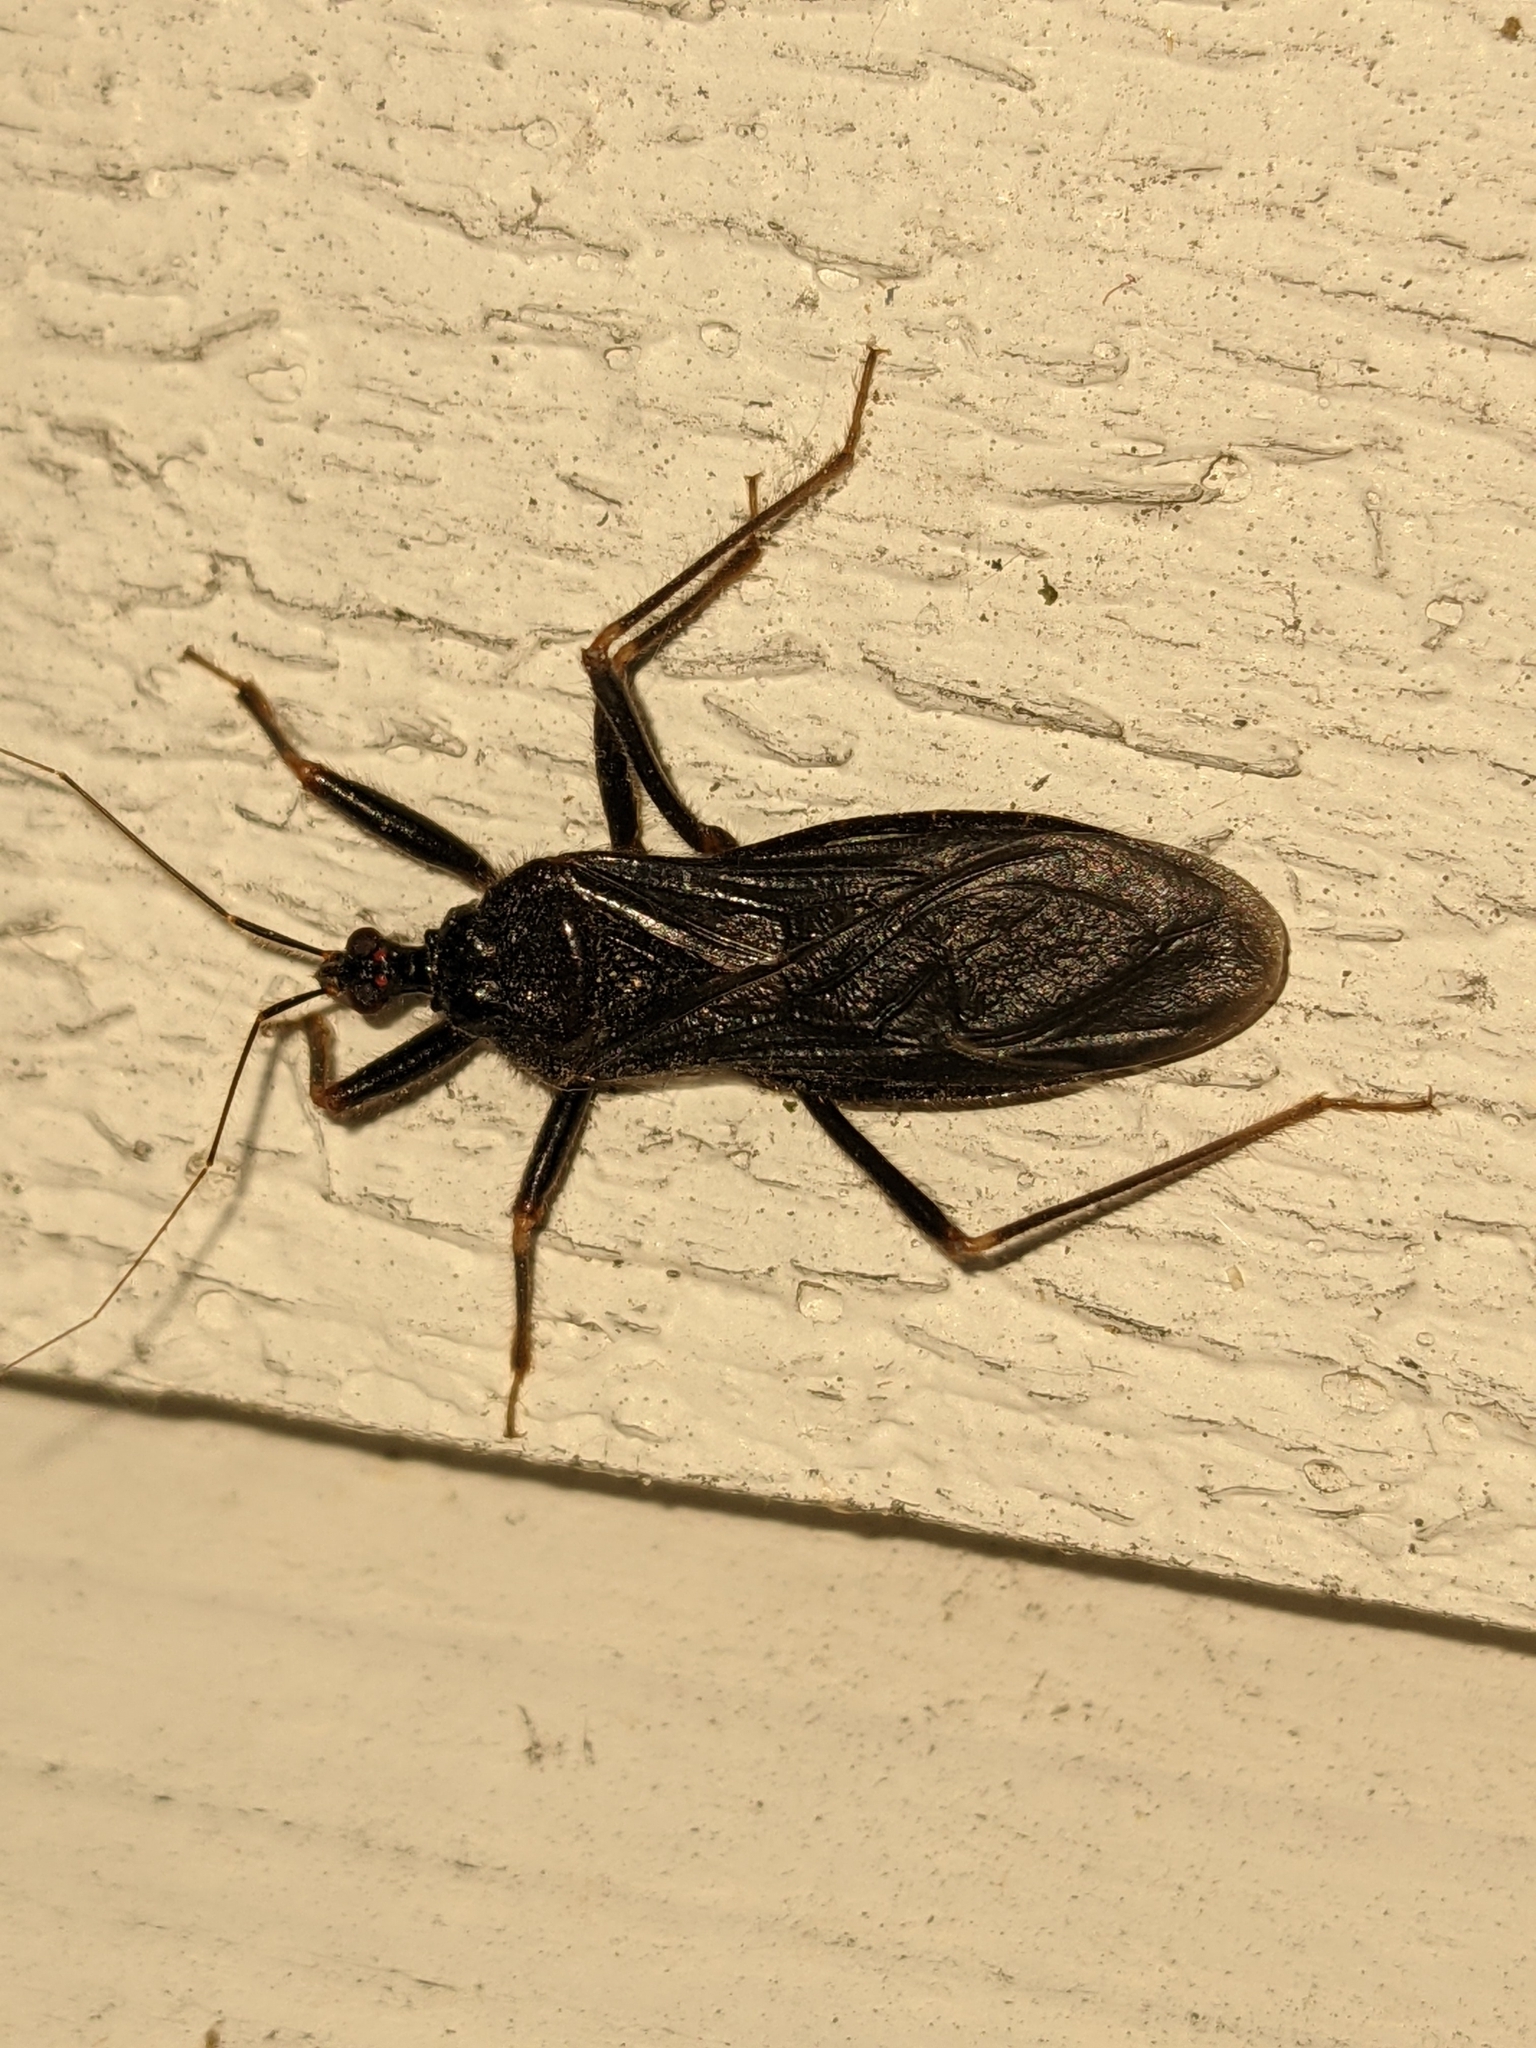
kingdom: Animalia
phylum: Arthropoda
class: Insecta
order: Hemiptera
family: Reduviidae
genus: Reduvius
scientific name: Reduvius personatus
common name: Masked hunter
